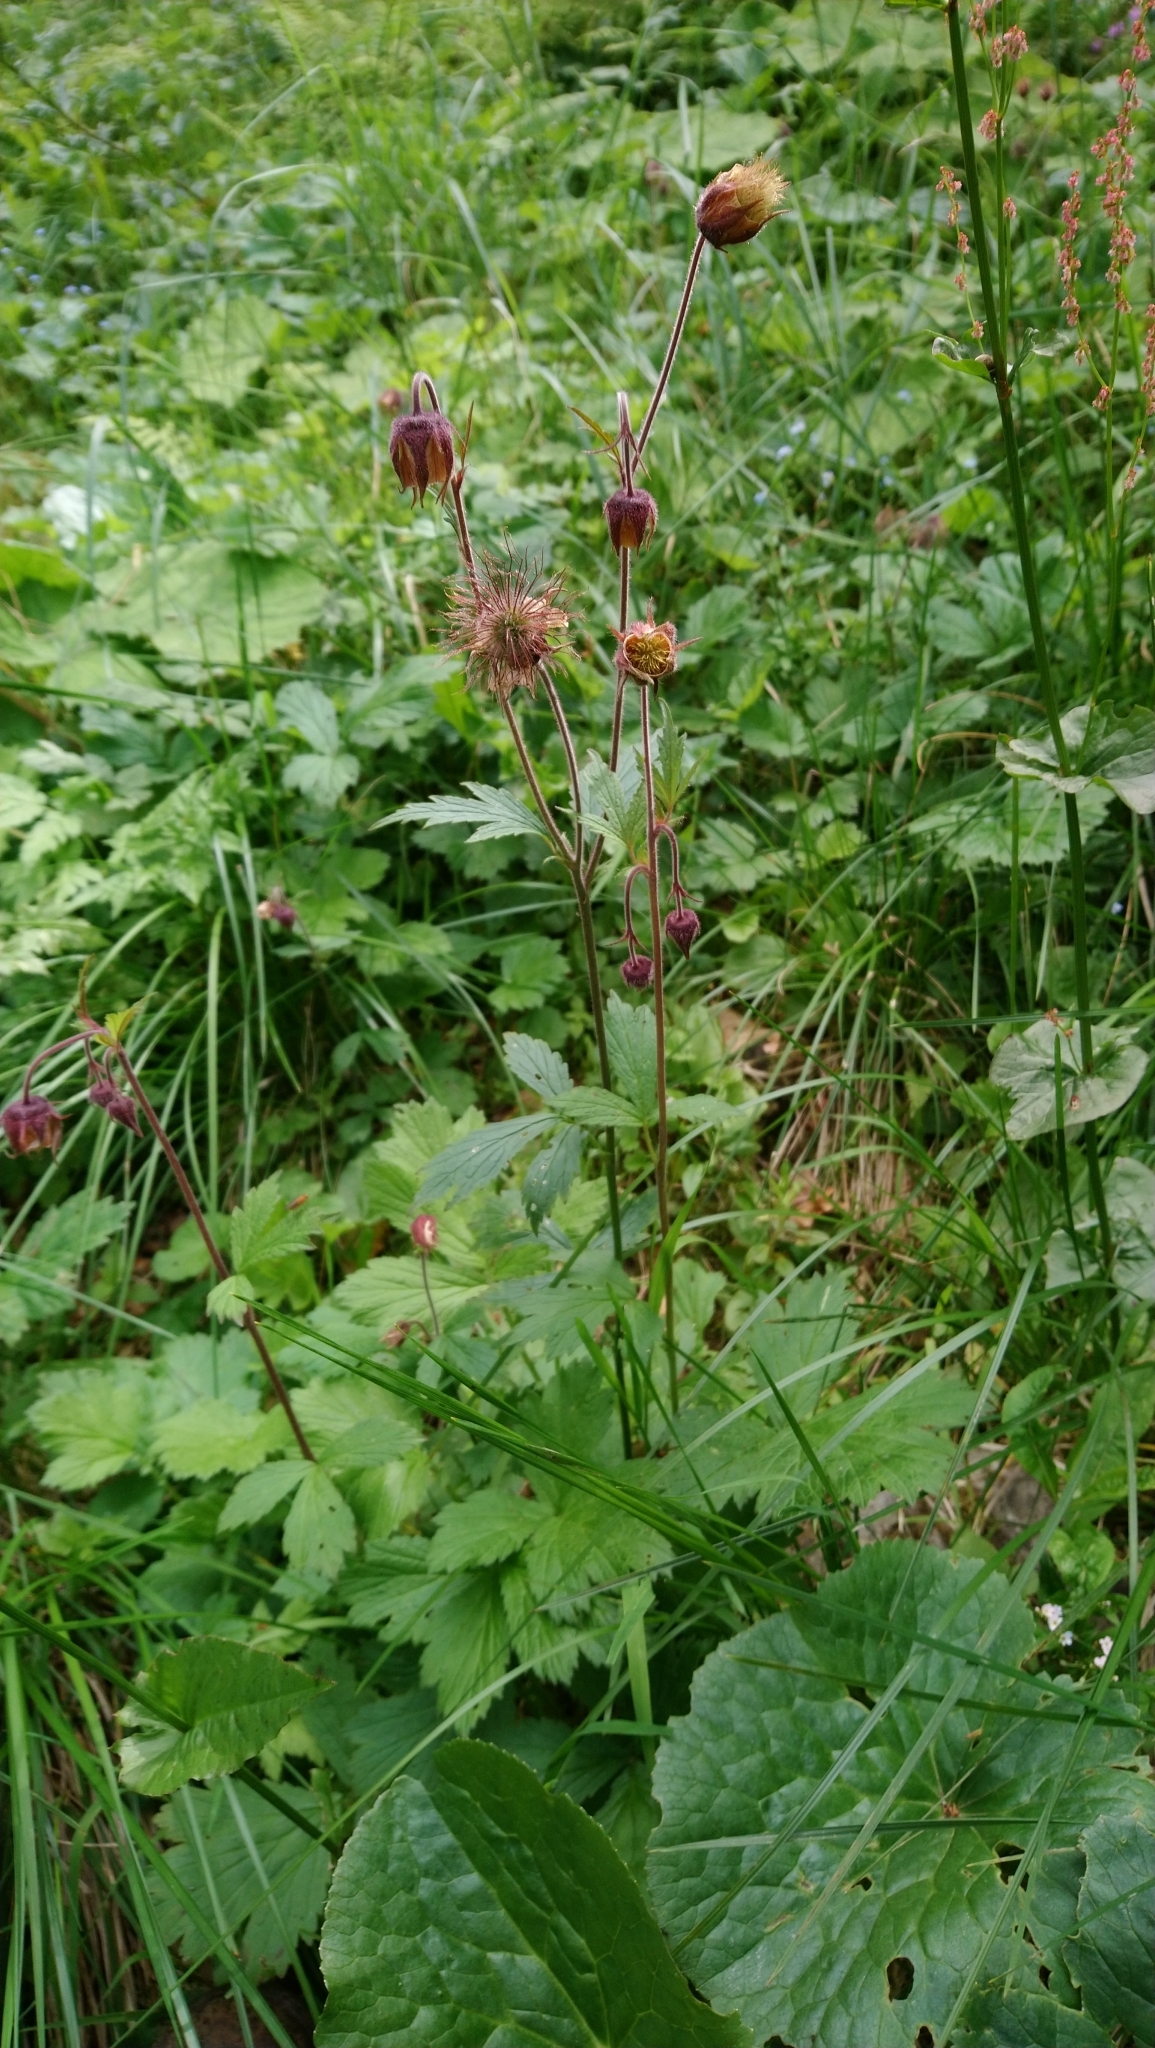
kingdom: Plantae
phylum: Tracheophyta
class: Magnoliopsida
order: Rosales
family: Rosaceae
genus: Geum
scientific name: Geum rivale
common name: Water avens
